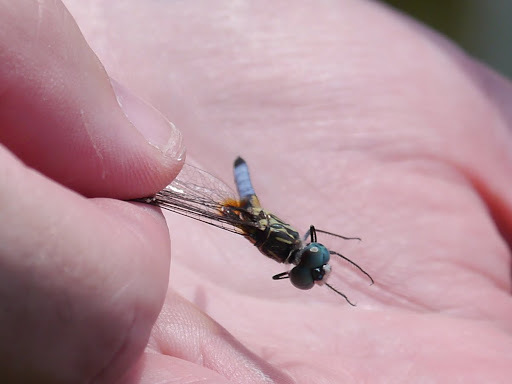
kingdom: Animalia
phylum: Arthropoda
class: Insecta
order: Odonata
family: Libellulidae
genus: Pachydiplax
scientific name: Pachydiplax longipennis
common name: Blue dasher
